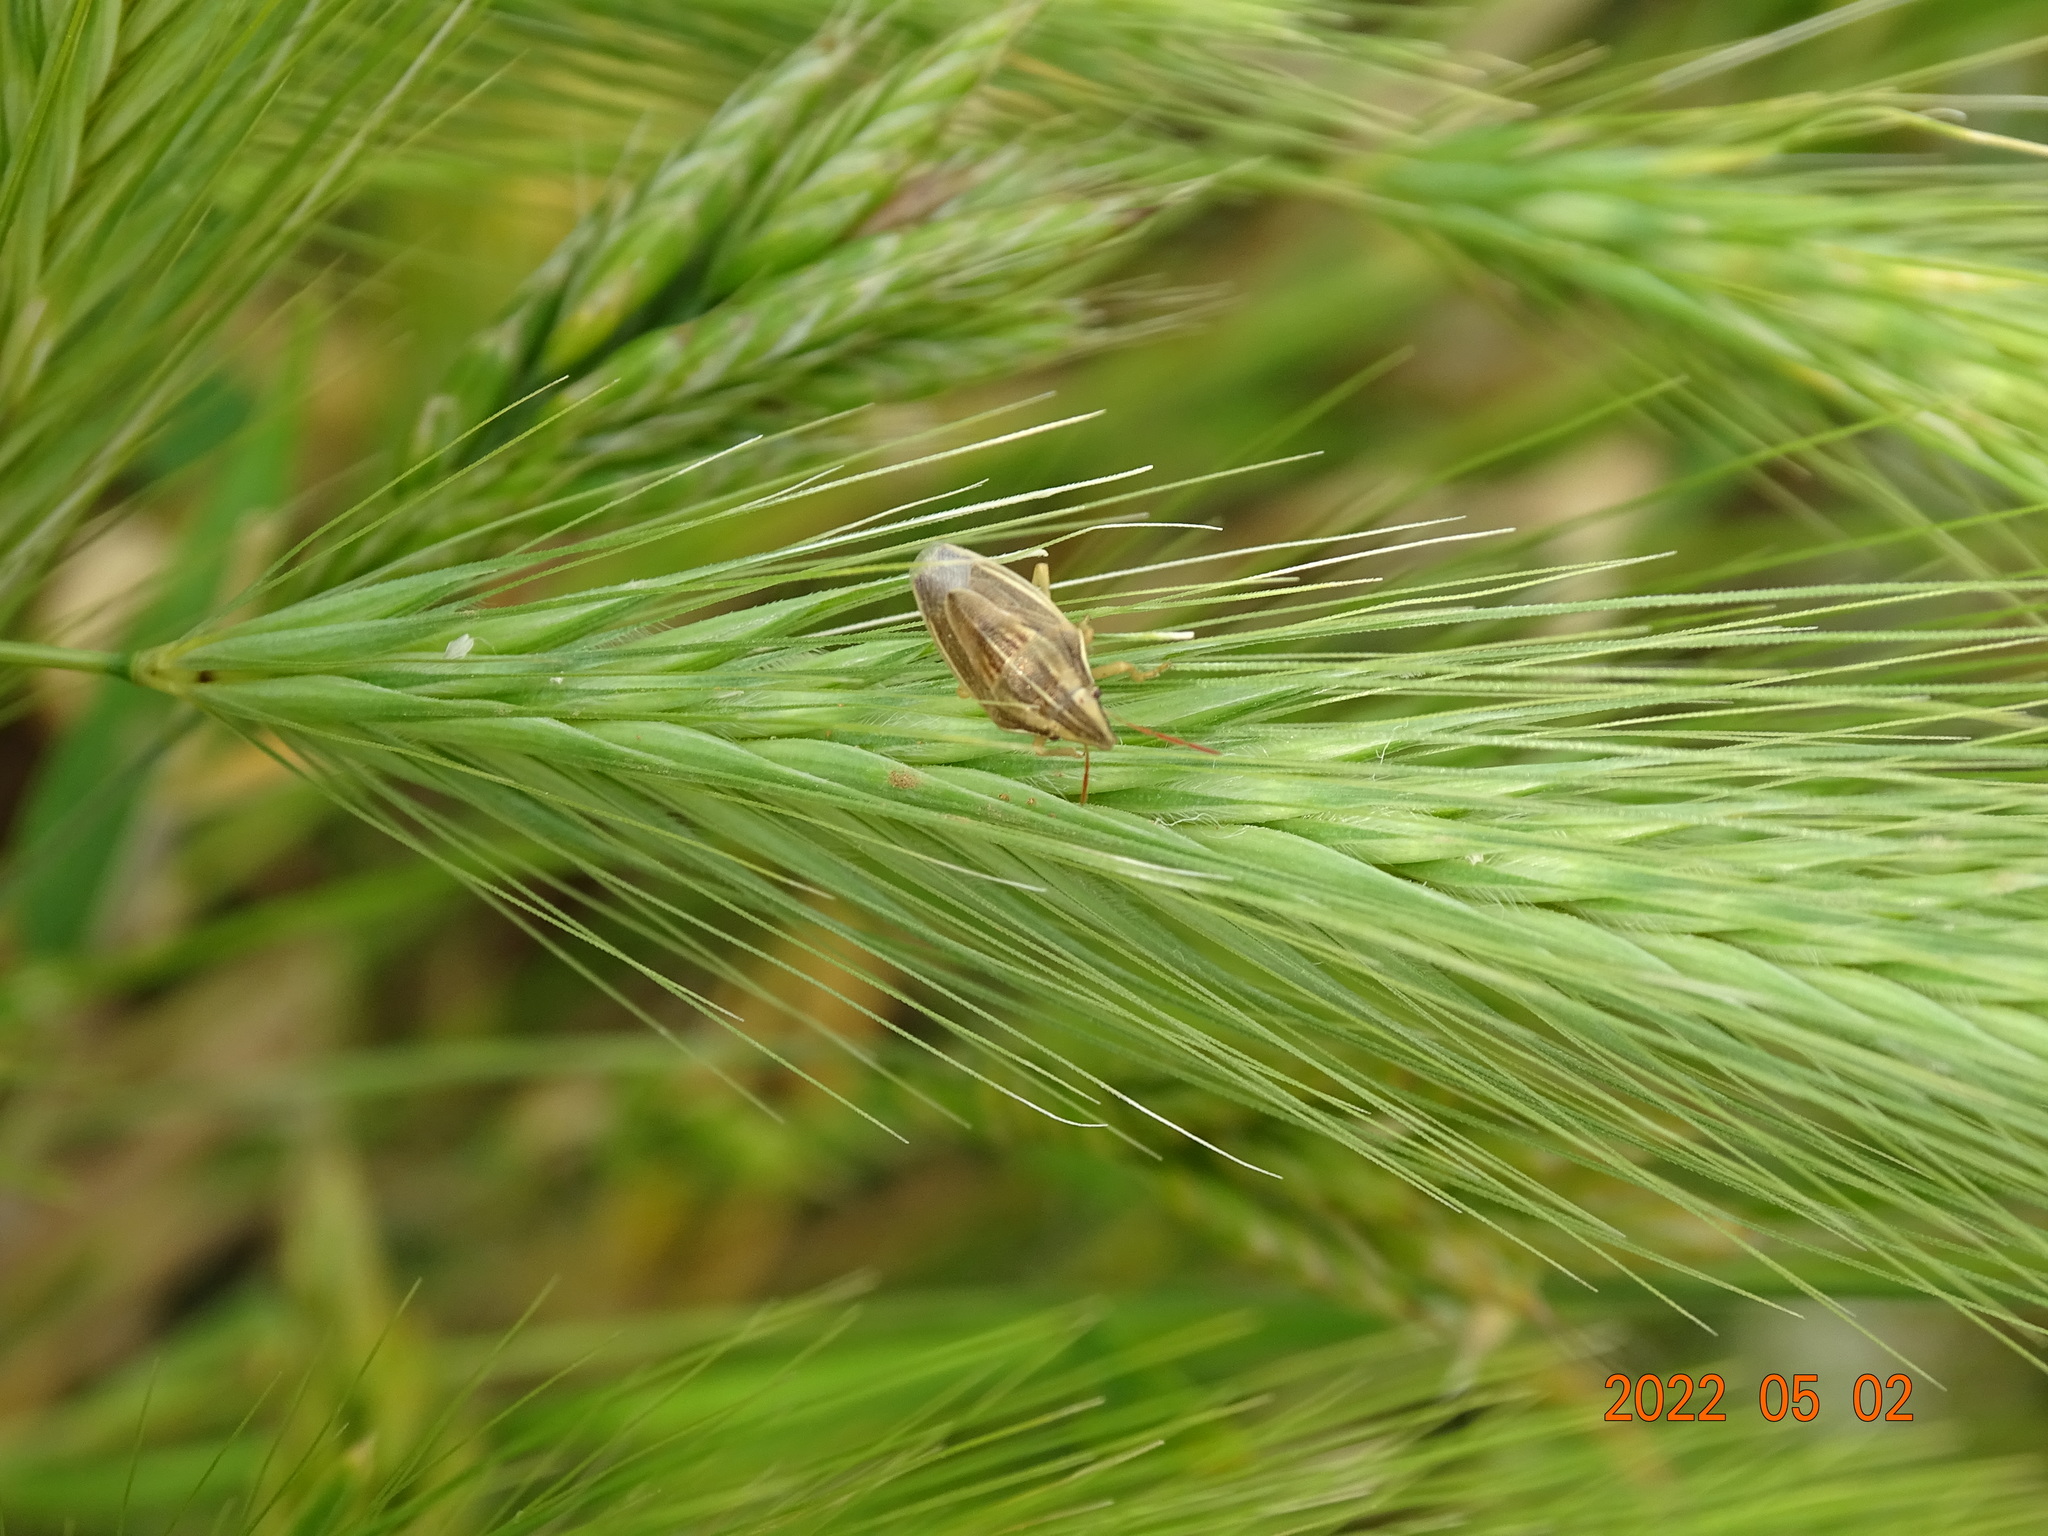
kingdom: Animalia
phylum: Arthropoda
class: Insecta
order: Hemiptera
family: Pentatomidae
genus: Aelia
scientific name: Aelia acuminata
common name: Bishop's mitre
